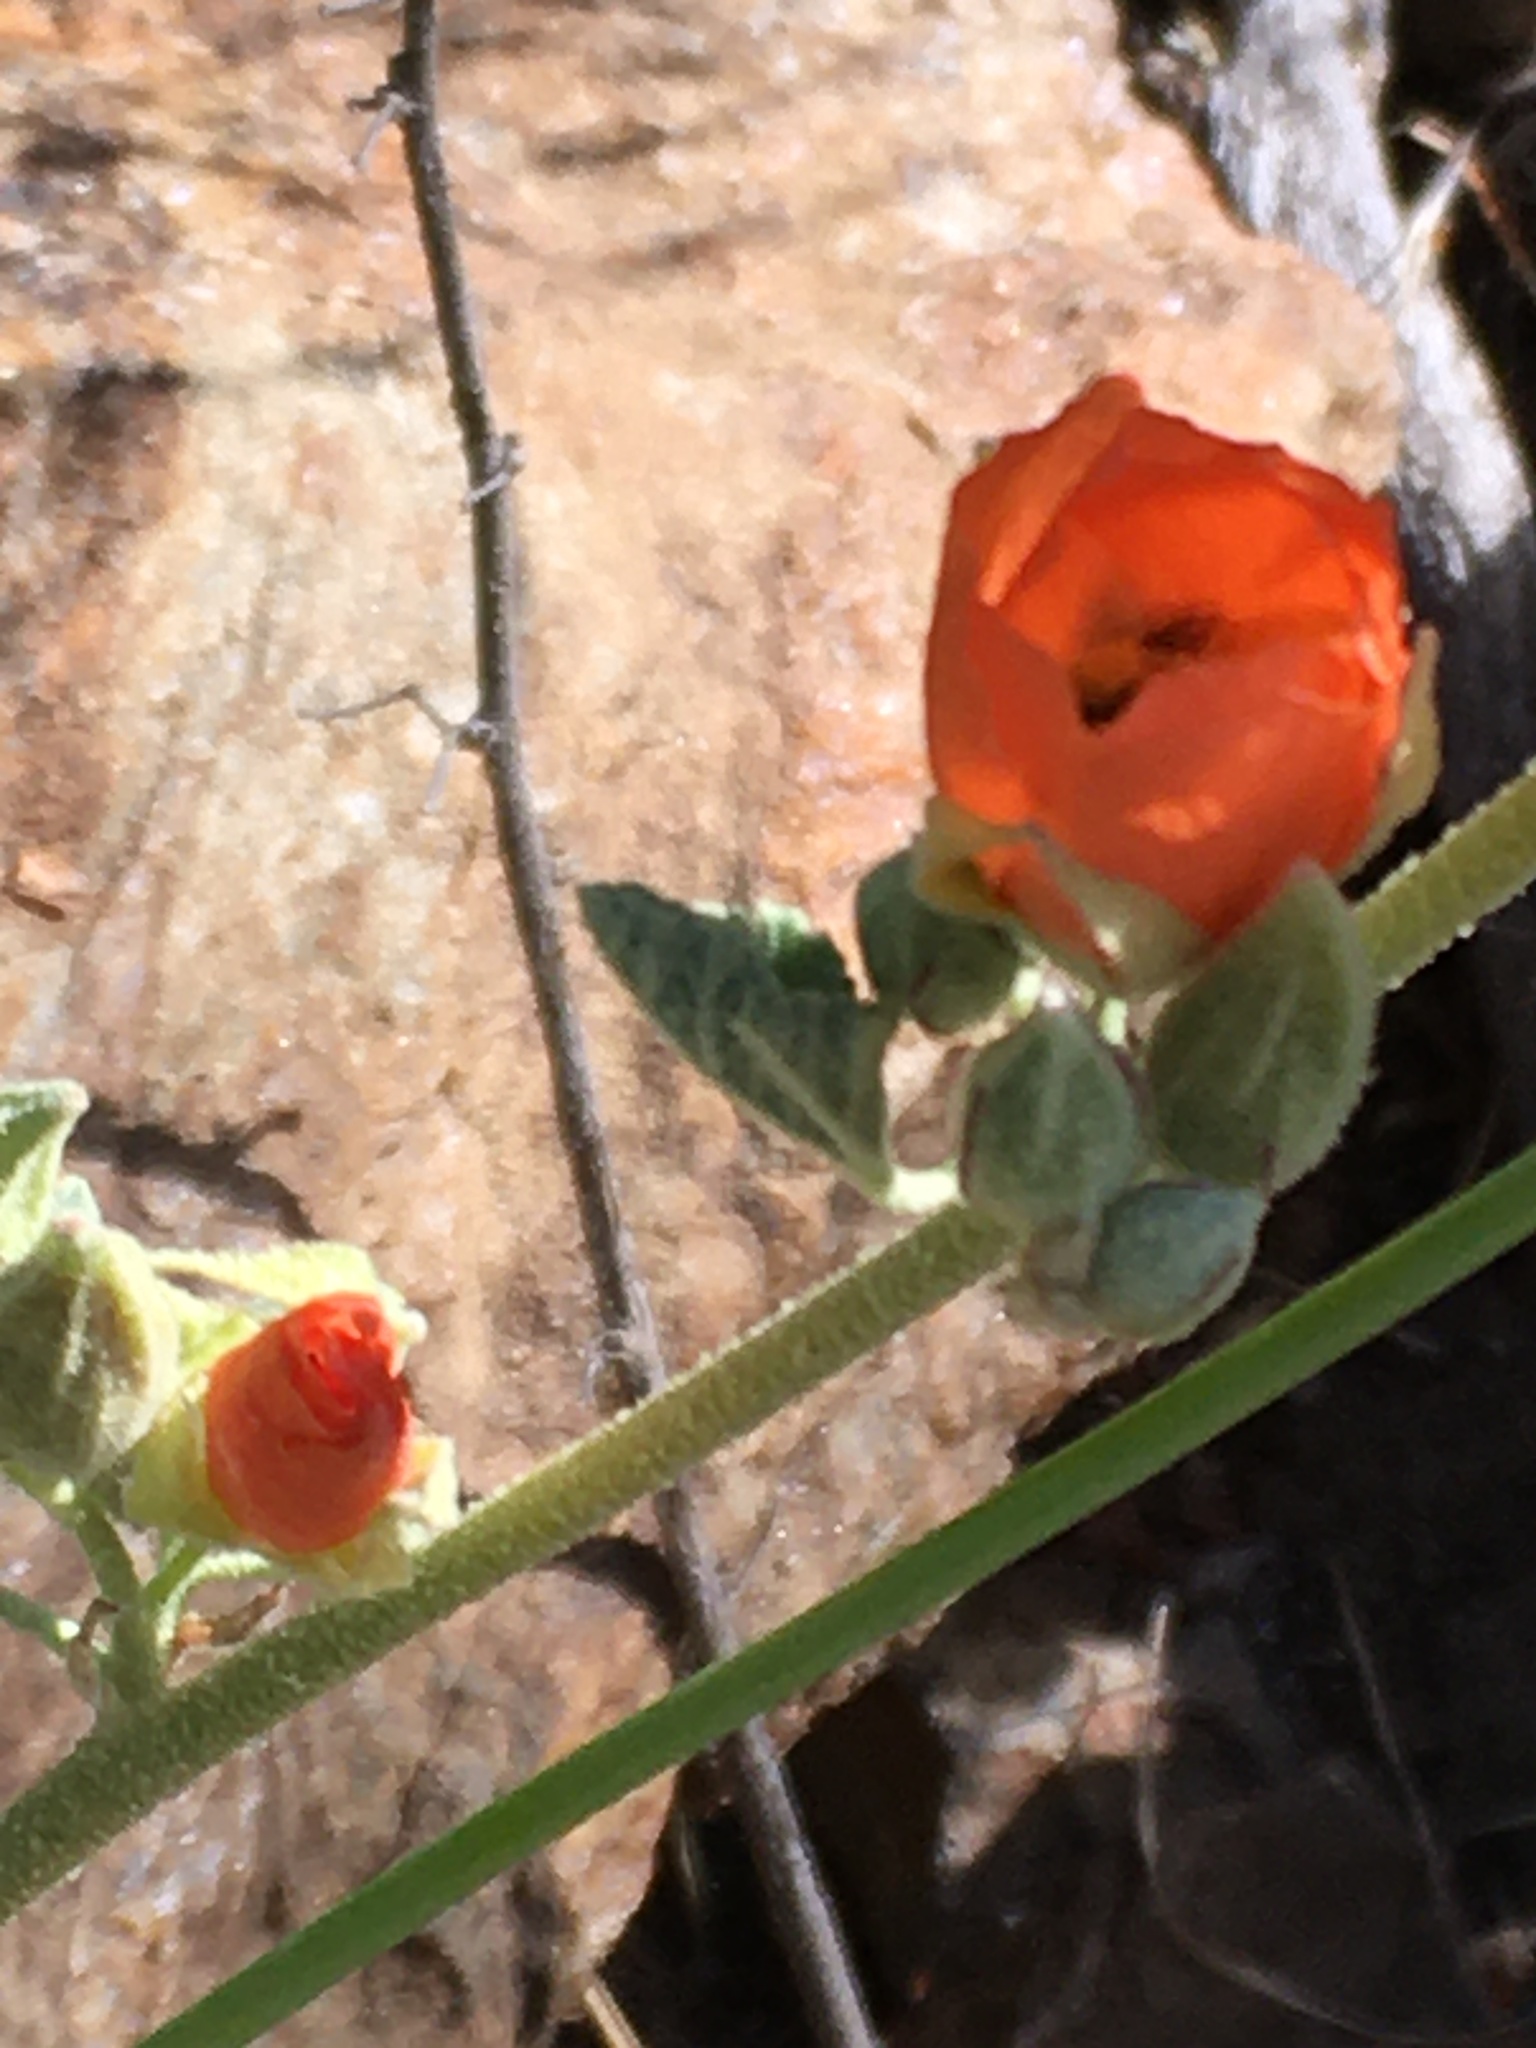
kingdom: Plantae
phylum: Tracheophyta
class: Magnoliopsida
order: Malvales
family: Malvaceae
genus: Sphaeralcea
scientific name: Sphaeralcea ambigua
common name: Apricot globe-mallow
